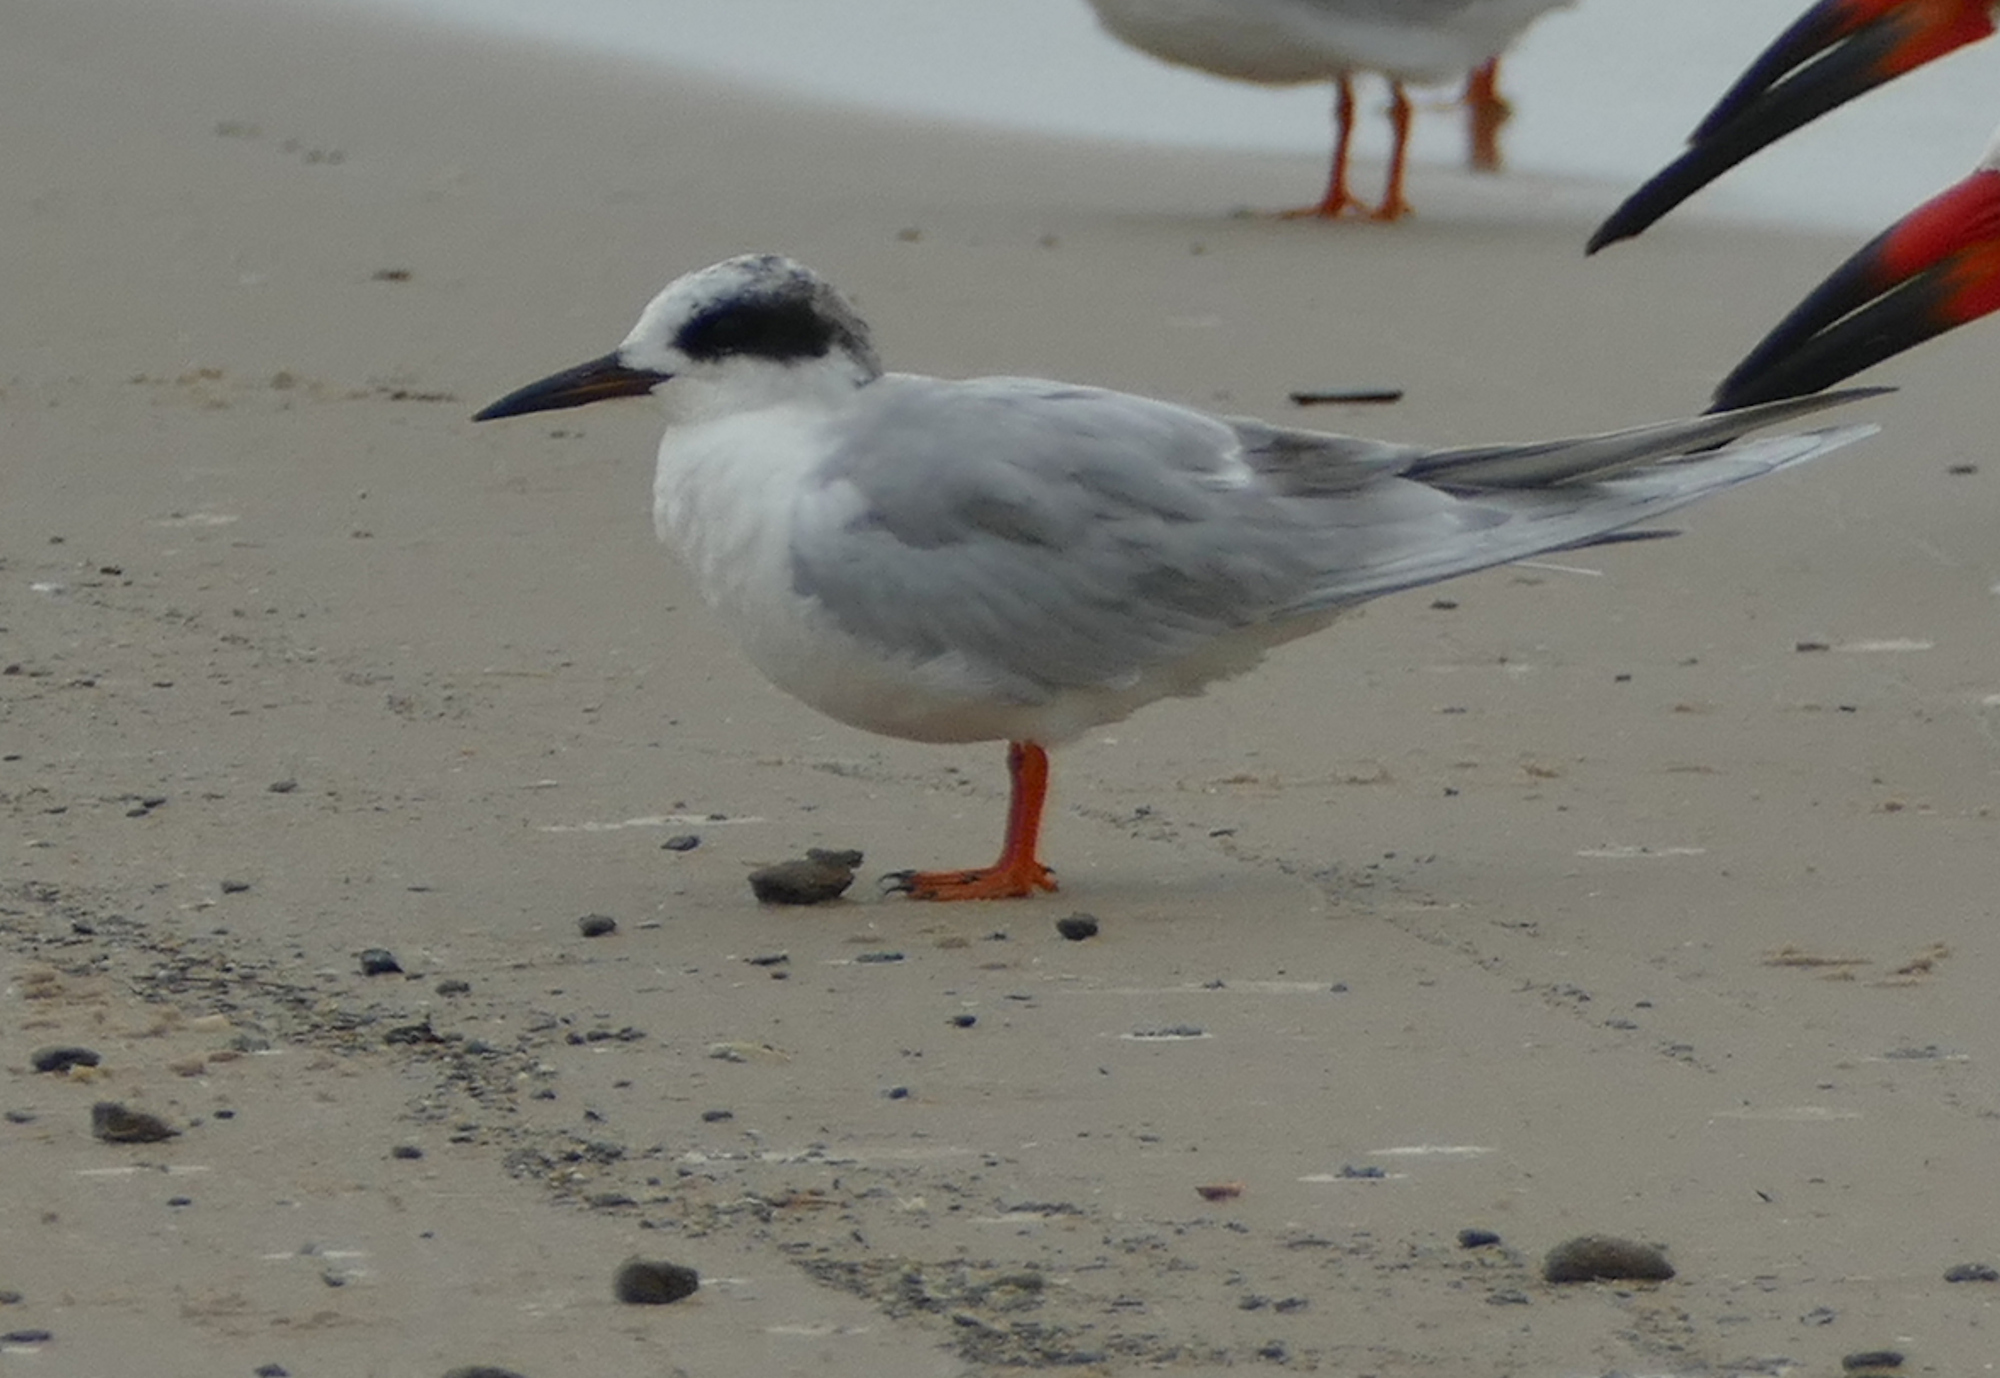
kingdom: Animalia
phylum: Chordata
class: Aves
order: Charadriiformes
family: Laridae
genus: Sterna
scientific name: Sterna forsteri
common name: Forster's tern
